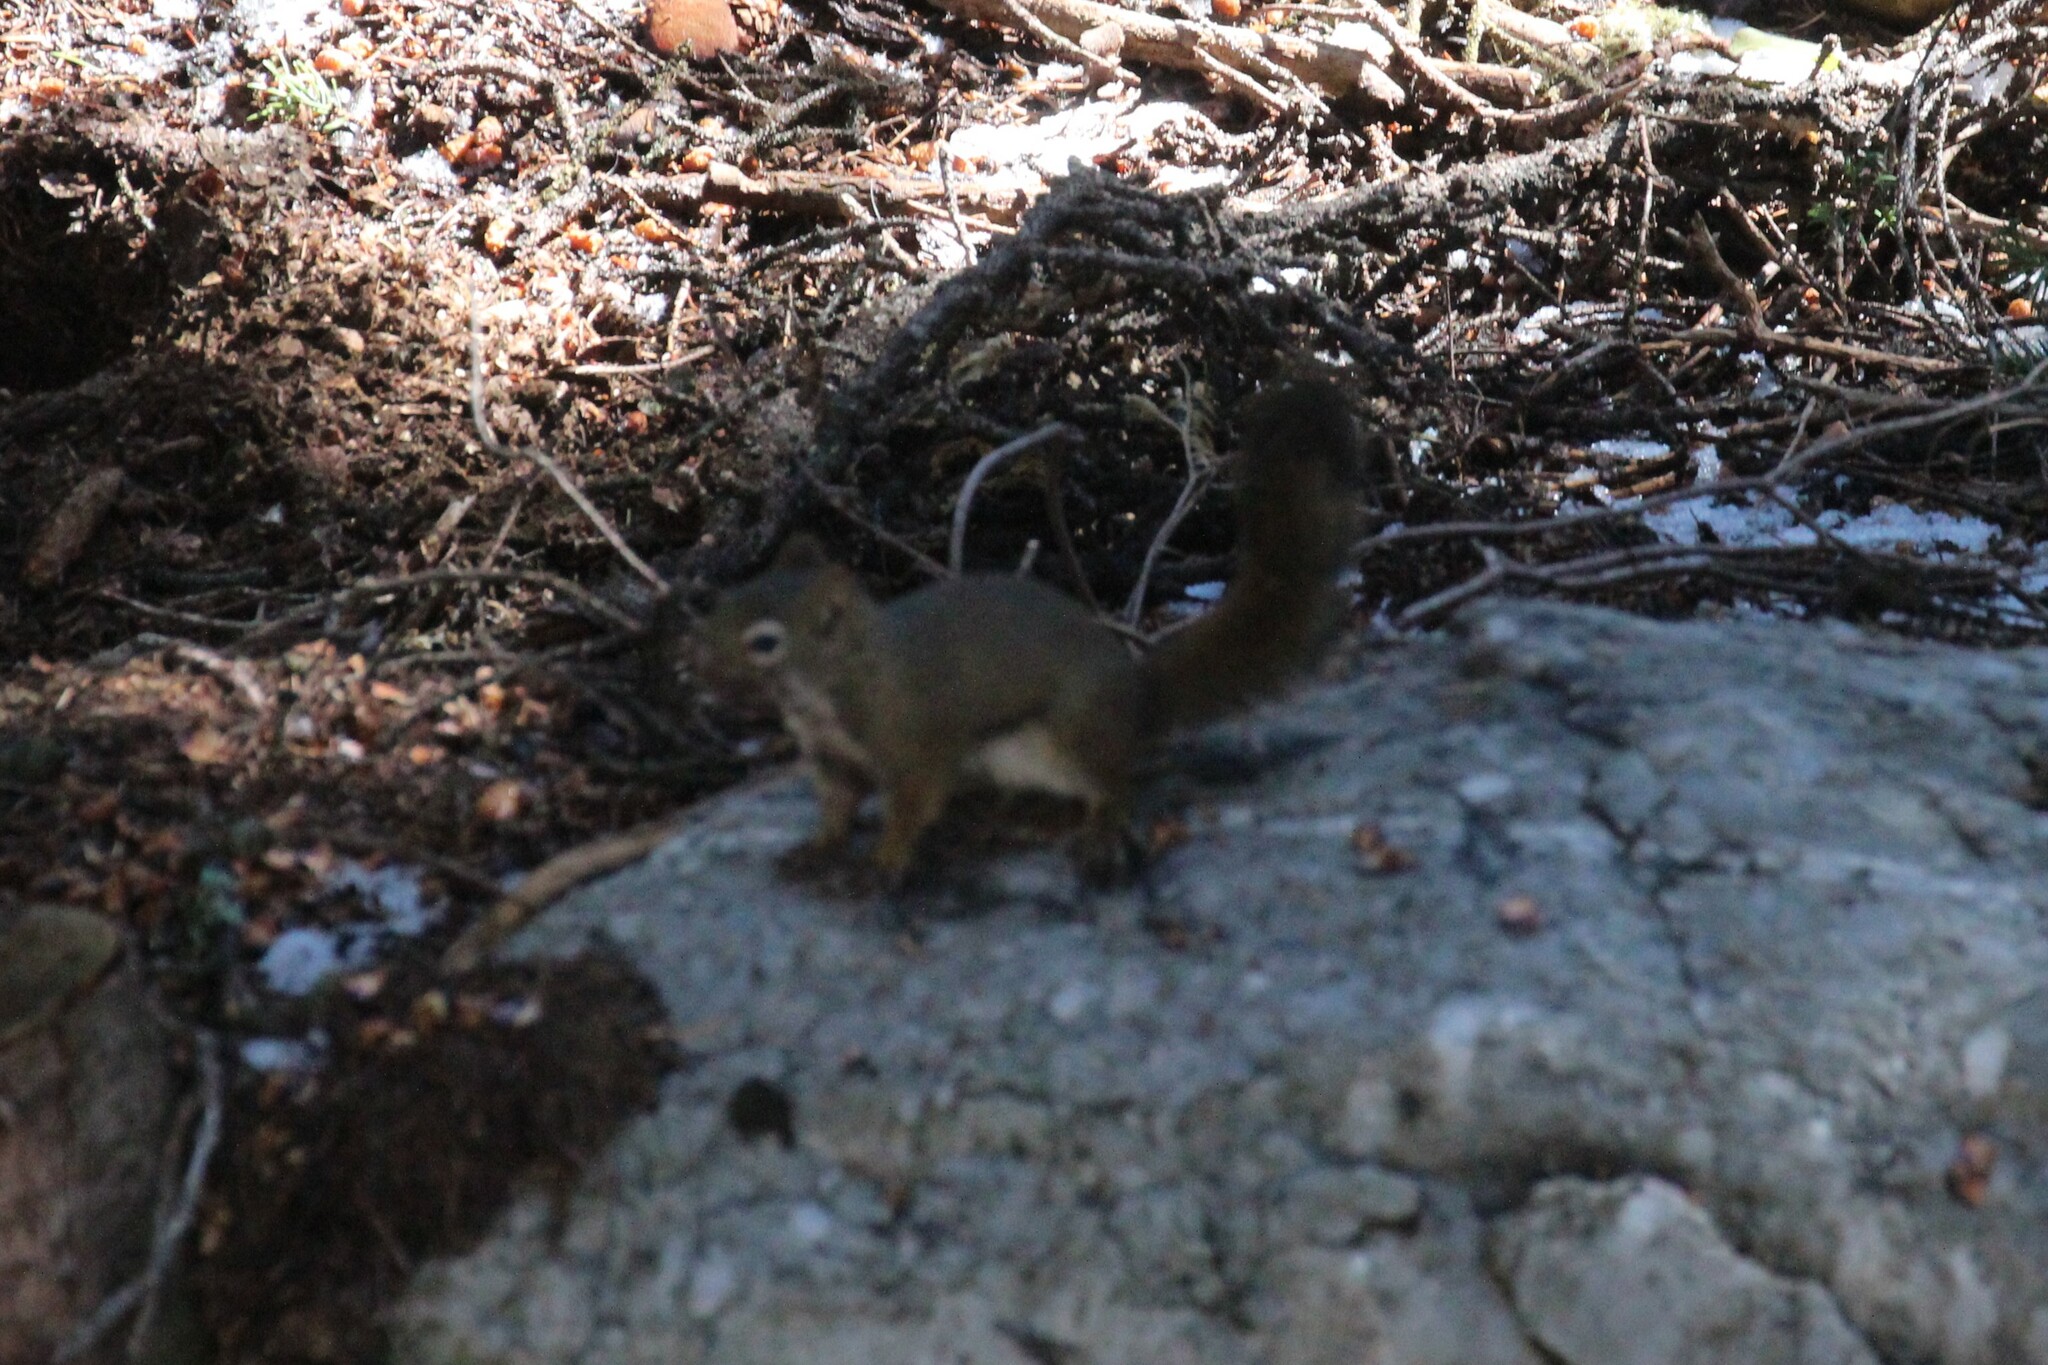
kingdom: Animalia
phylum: Chordata
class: Mammalia
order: Rodentia
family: Sciuridae
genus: Tamiasciurus
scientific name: Tamiasciurus hudsonicus
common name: Red squirrel
